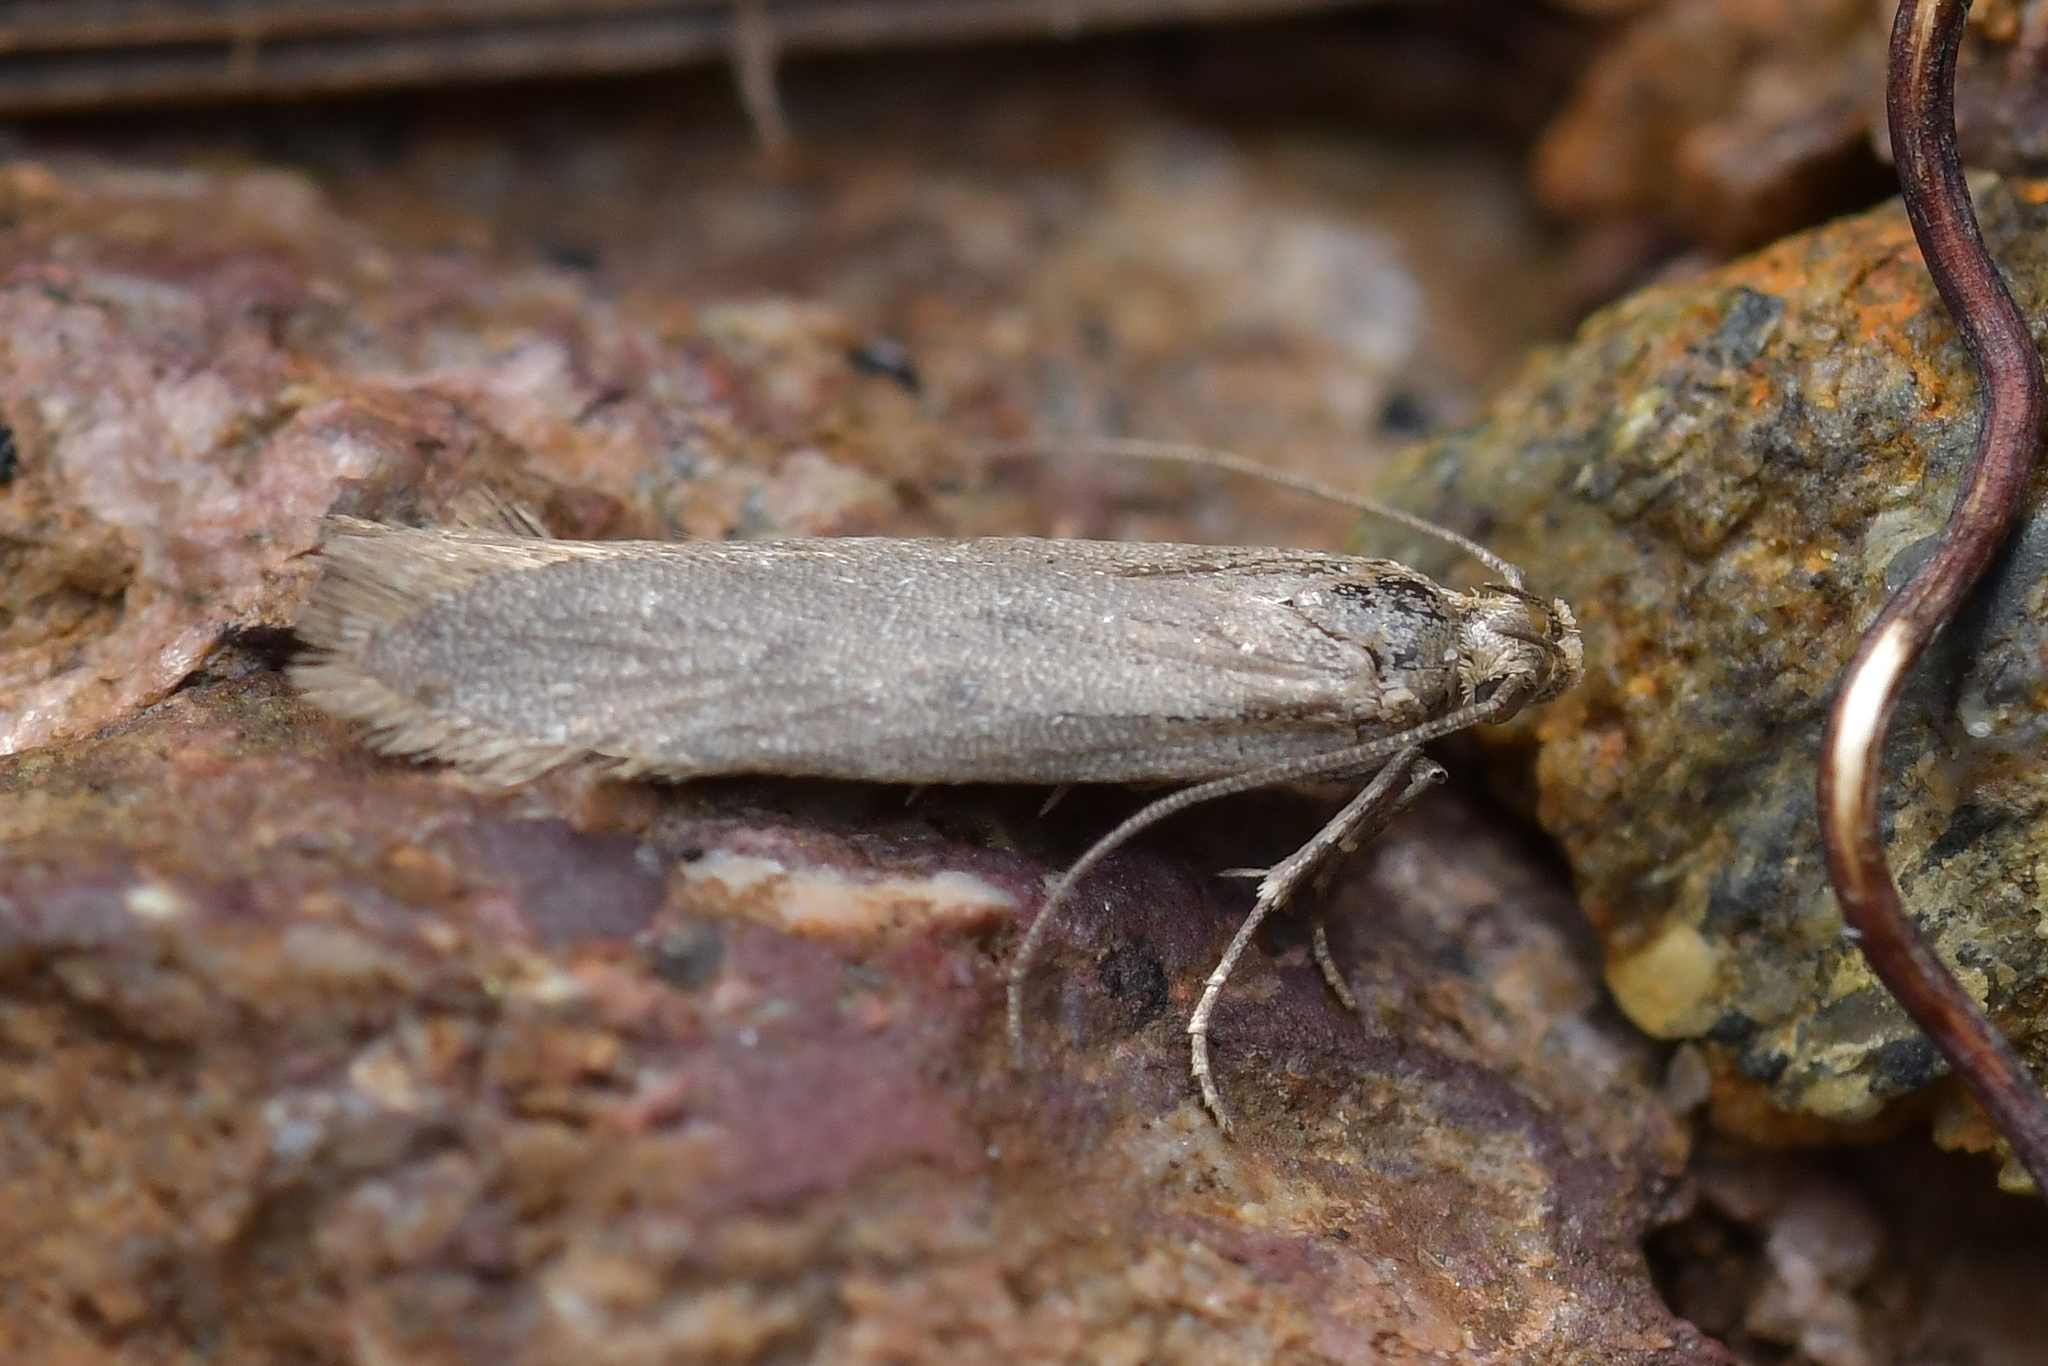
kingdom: Animalia
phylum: Arthropoda
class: Insecta
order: Lepidoptera
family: Gelechiidae
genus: Kiwaia
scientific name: Kiwaia lithodes
